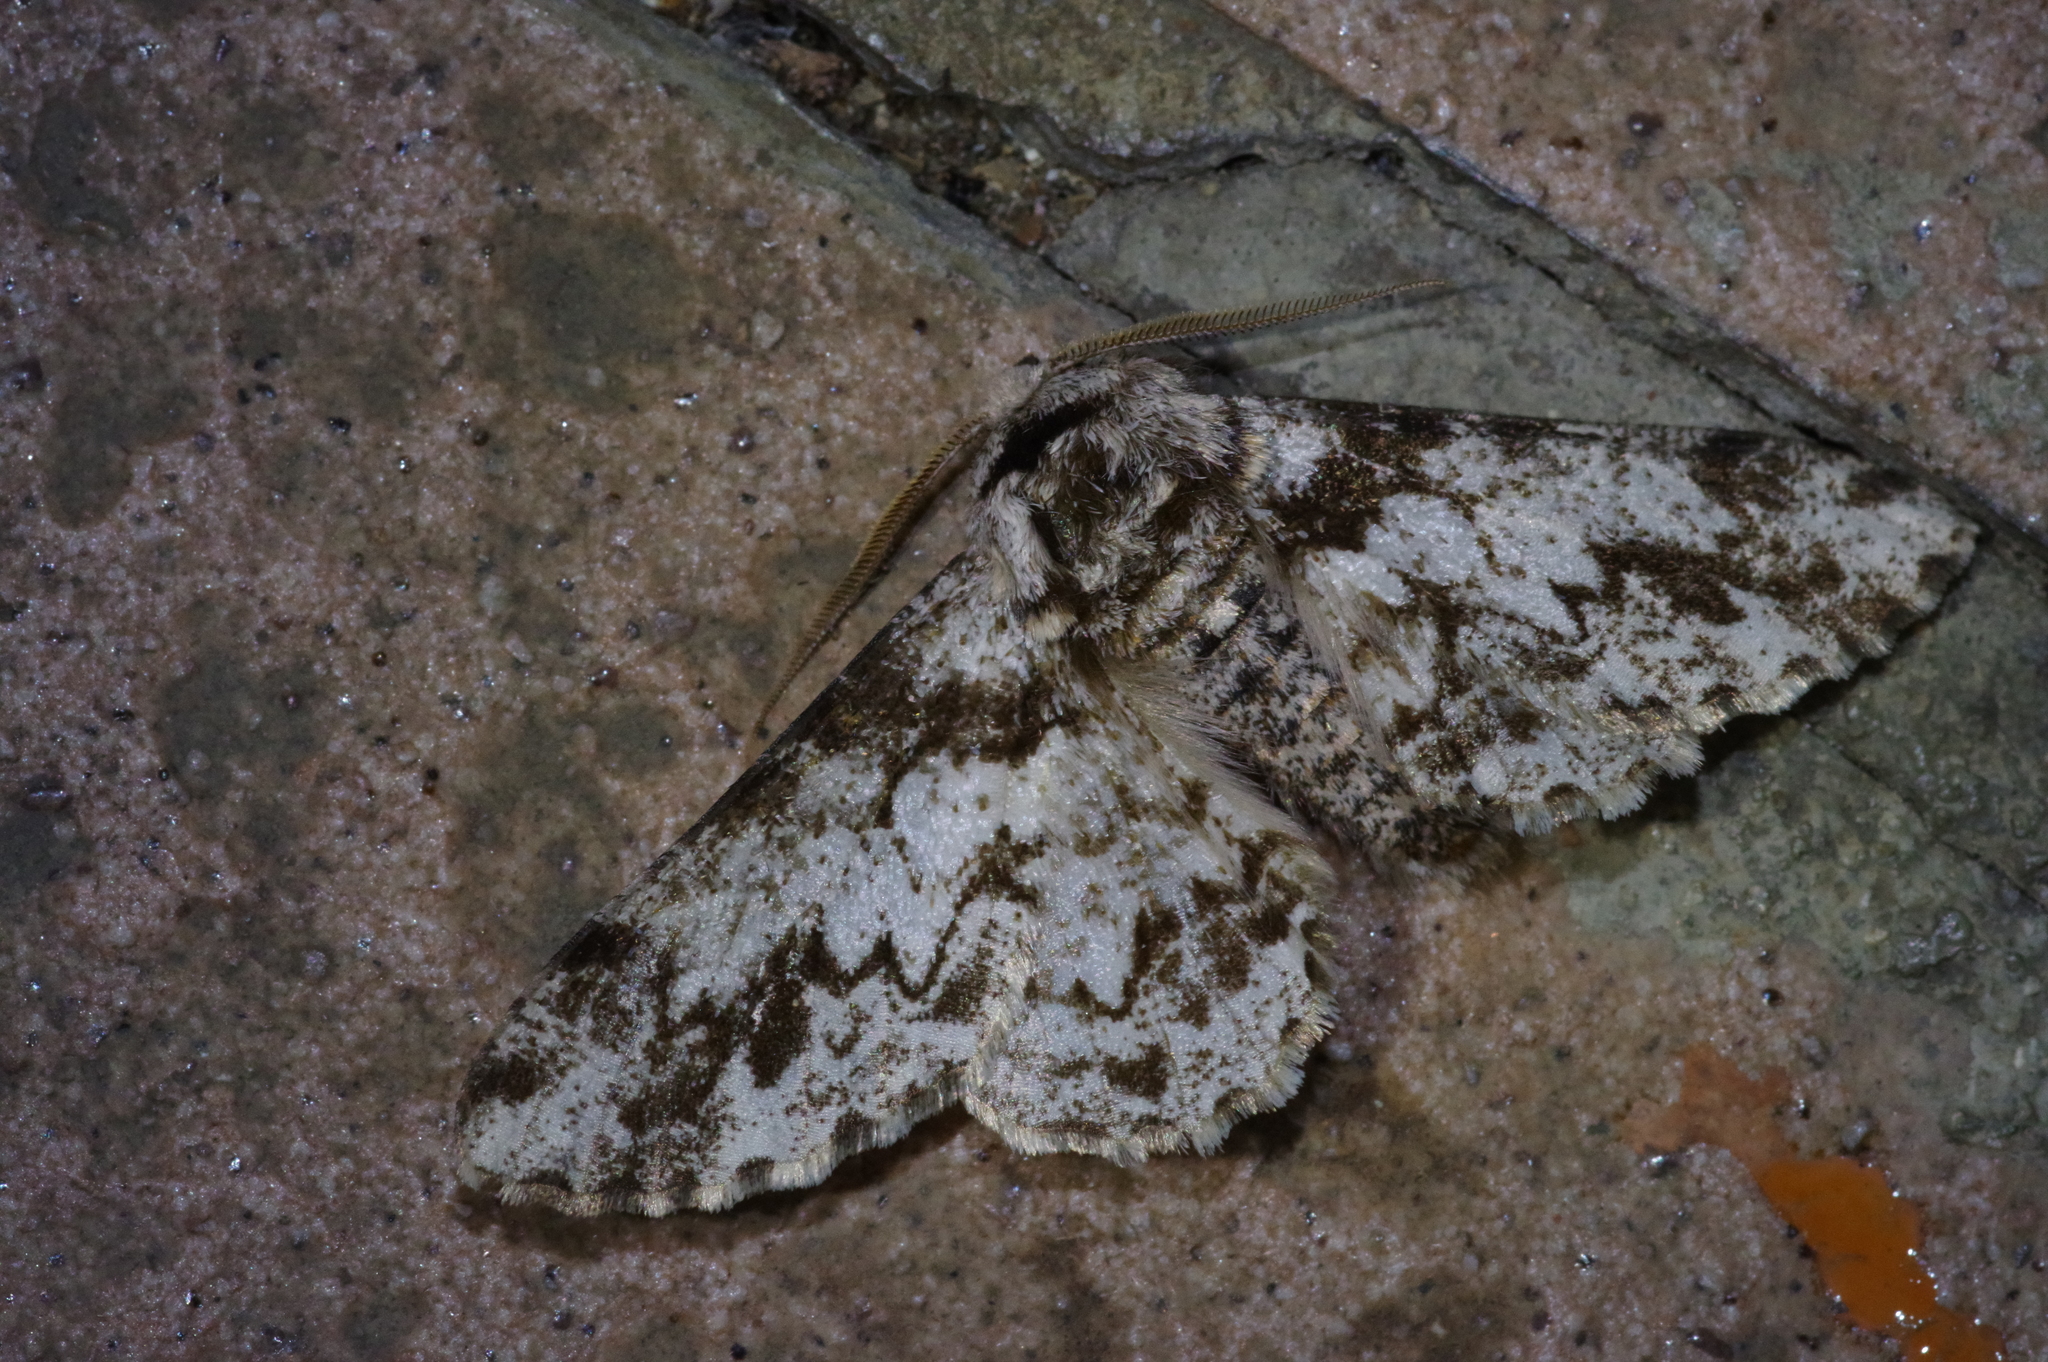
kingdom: Animalia
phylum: Arthropoda
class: Insecta
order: Lepidoptera
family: Geometridae
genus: Biston
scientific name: Biston marginata
